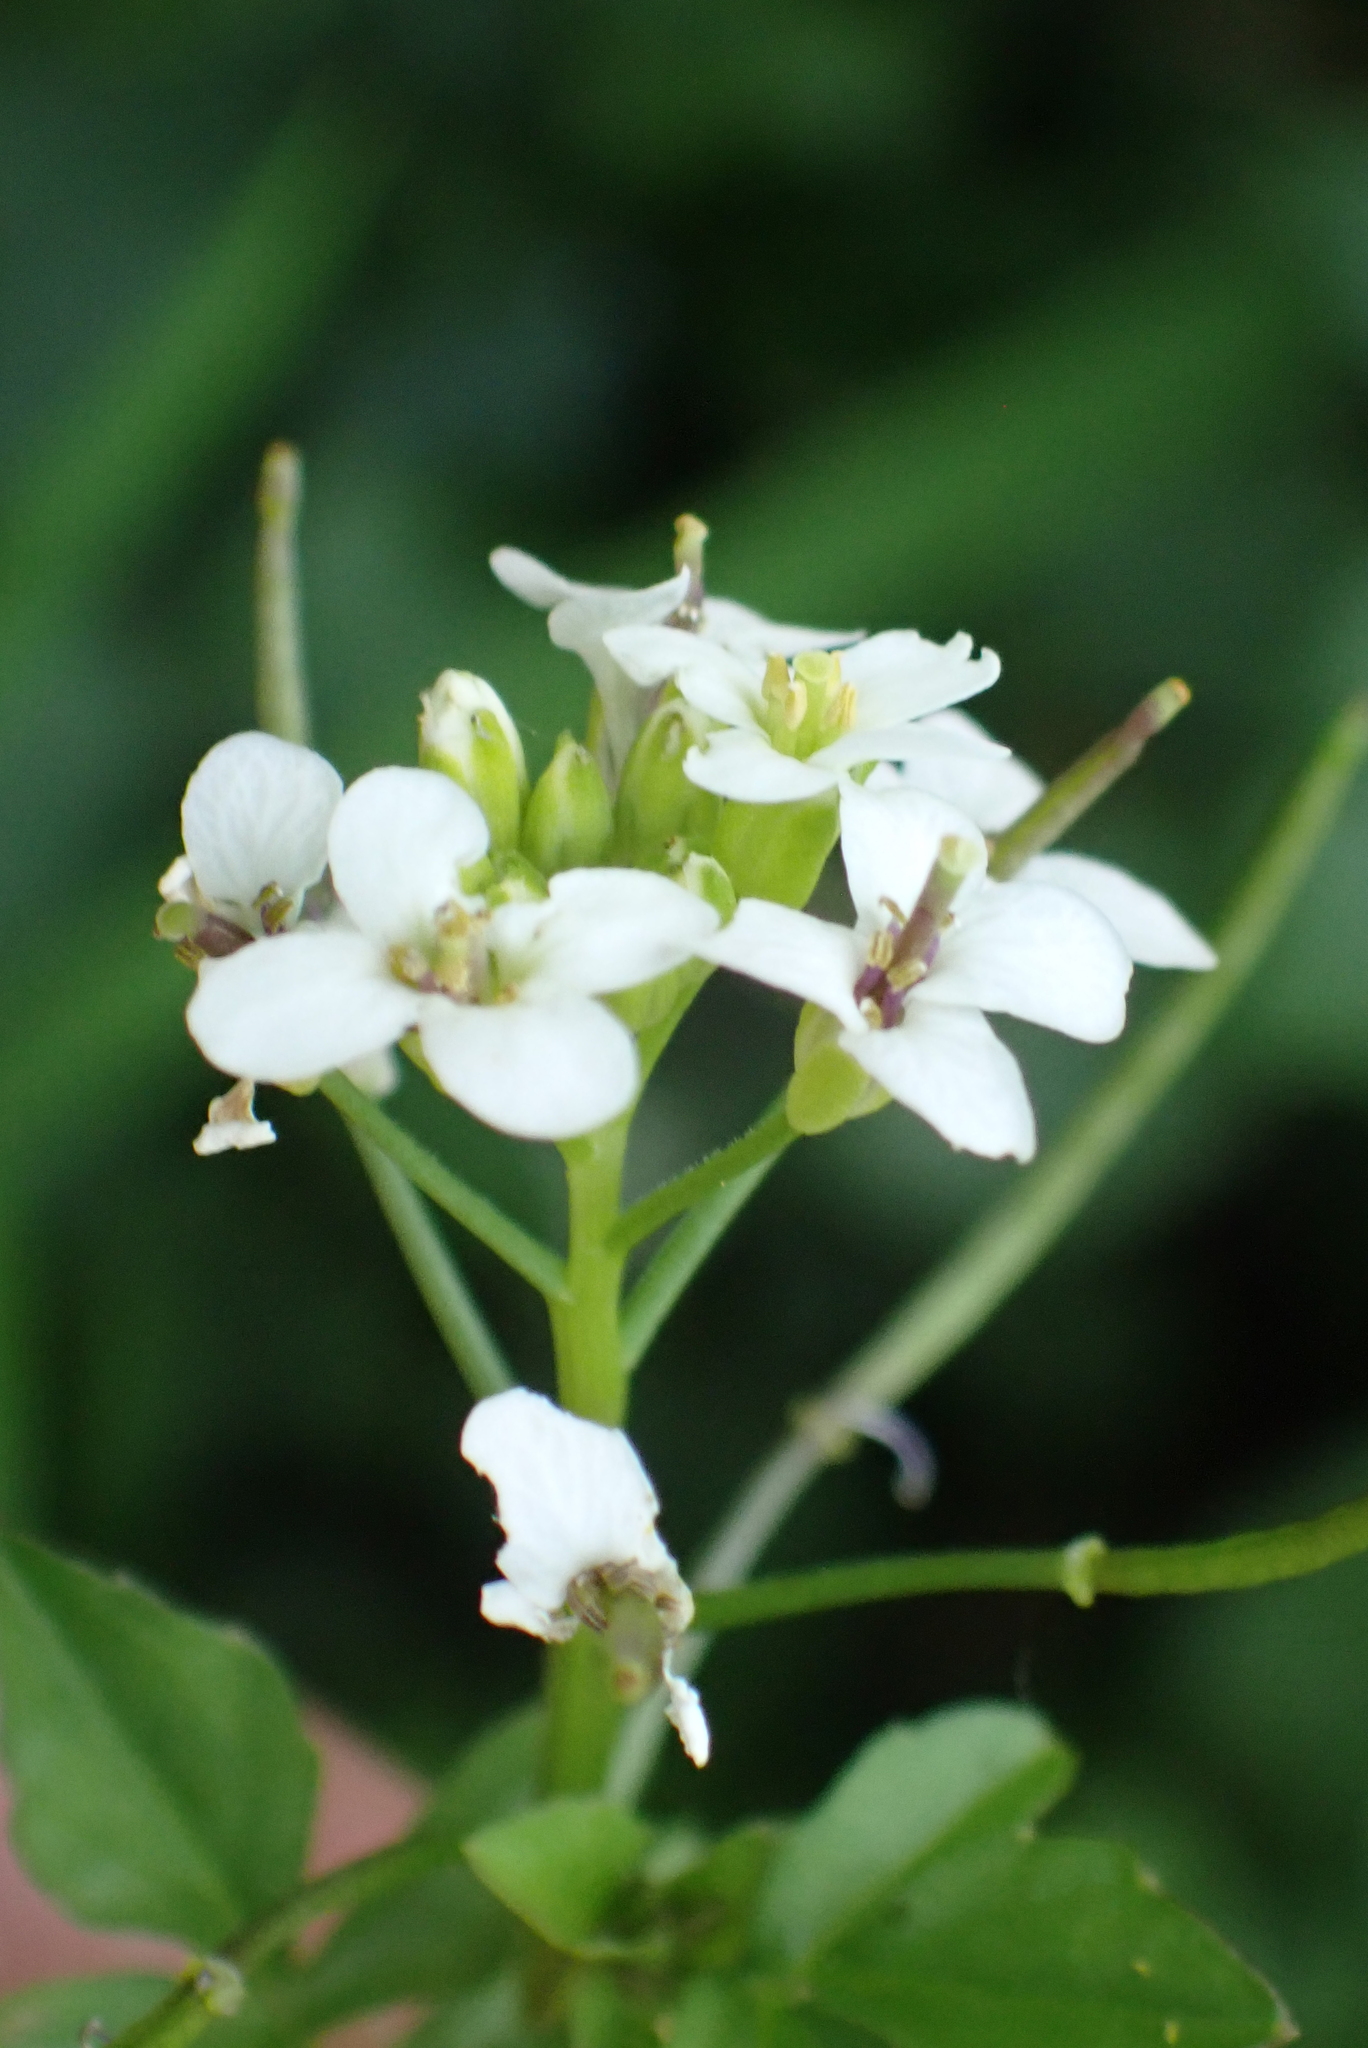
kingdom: Plantae
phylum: Tracheophyta
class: Magnoliopsida
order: Brassicales
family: Brassicaceae
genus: Nasturtium
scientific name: Nasturtium officinale
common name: Watercress
